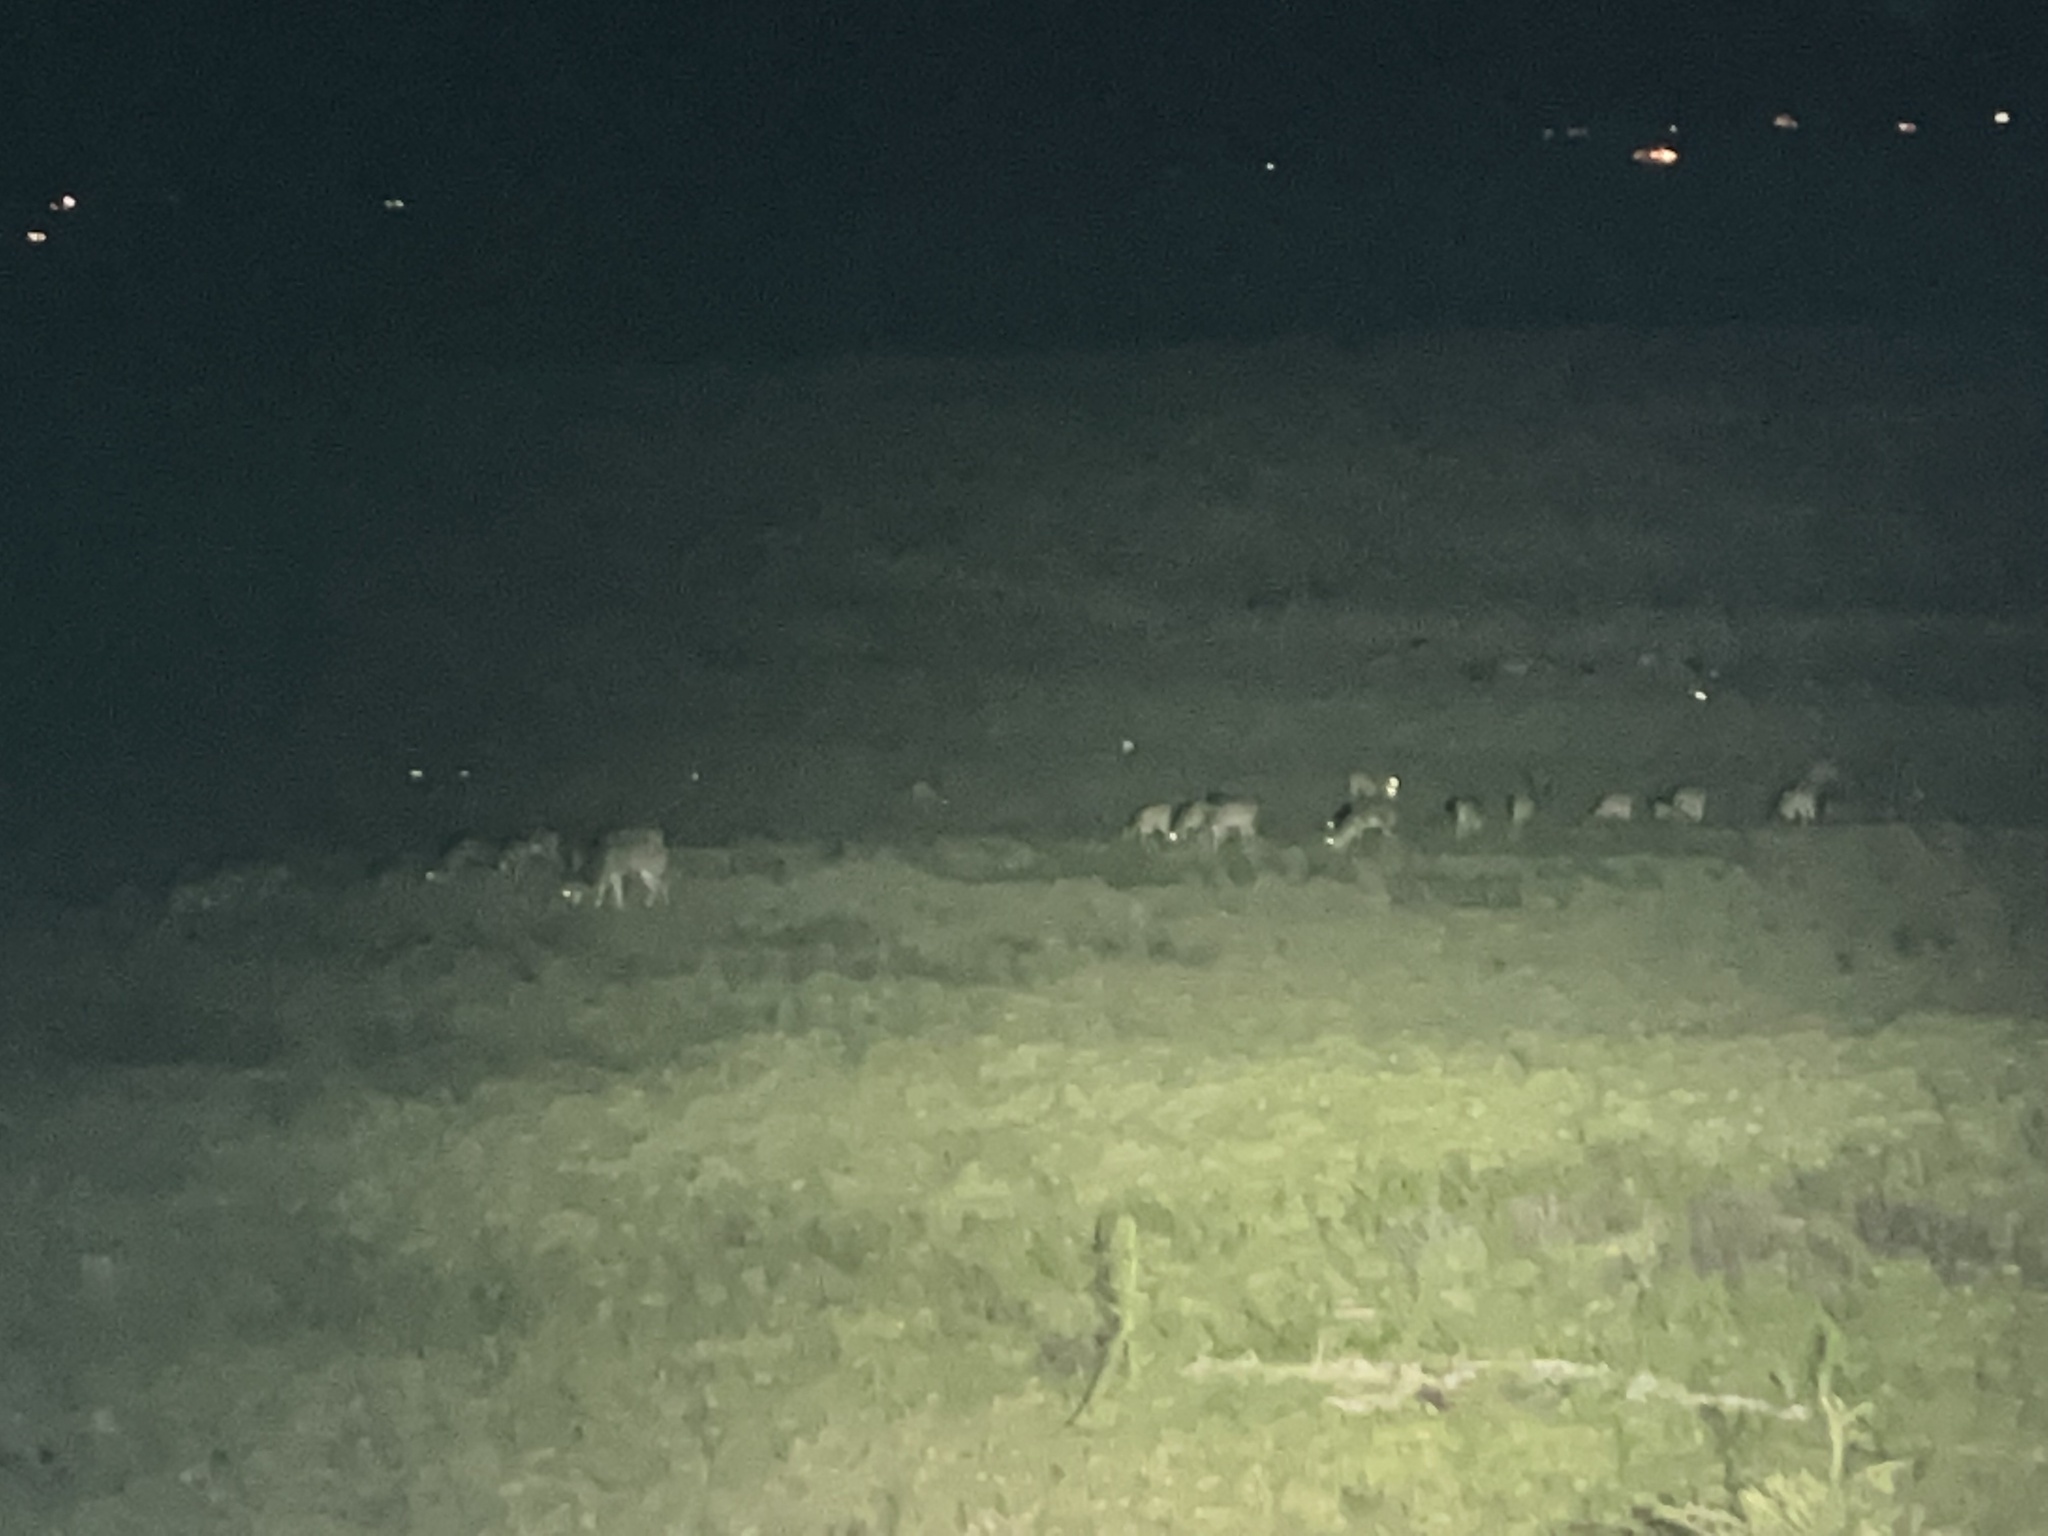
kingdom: Animalia
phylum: Chordata
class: Mammalia
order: Artiodactyla
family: Cervidae
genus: Axis
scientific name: Axis axis
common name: Chital
